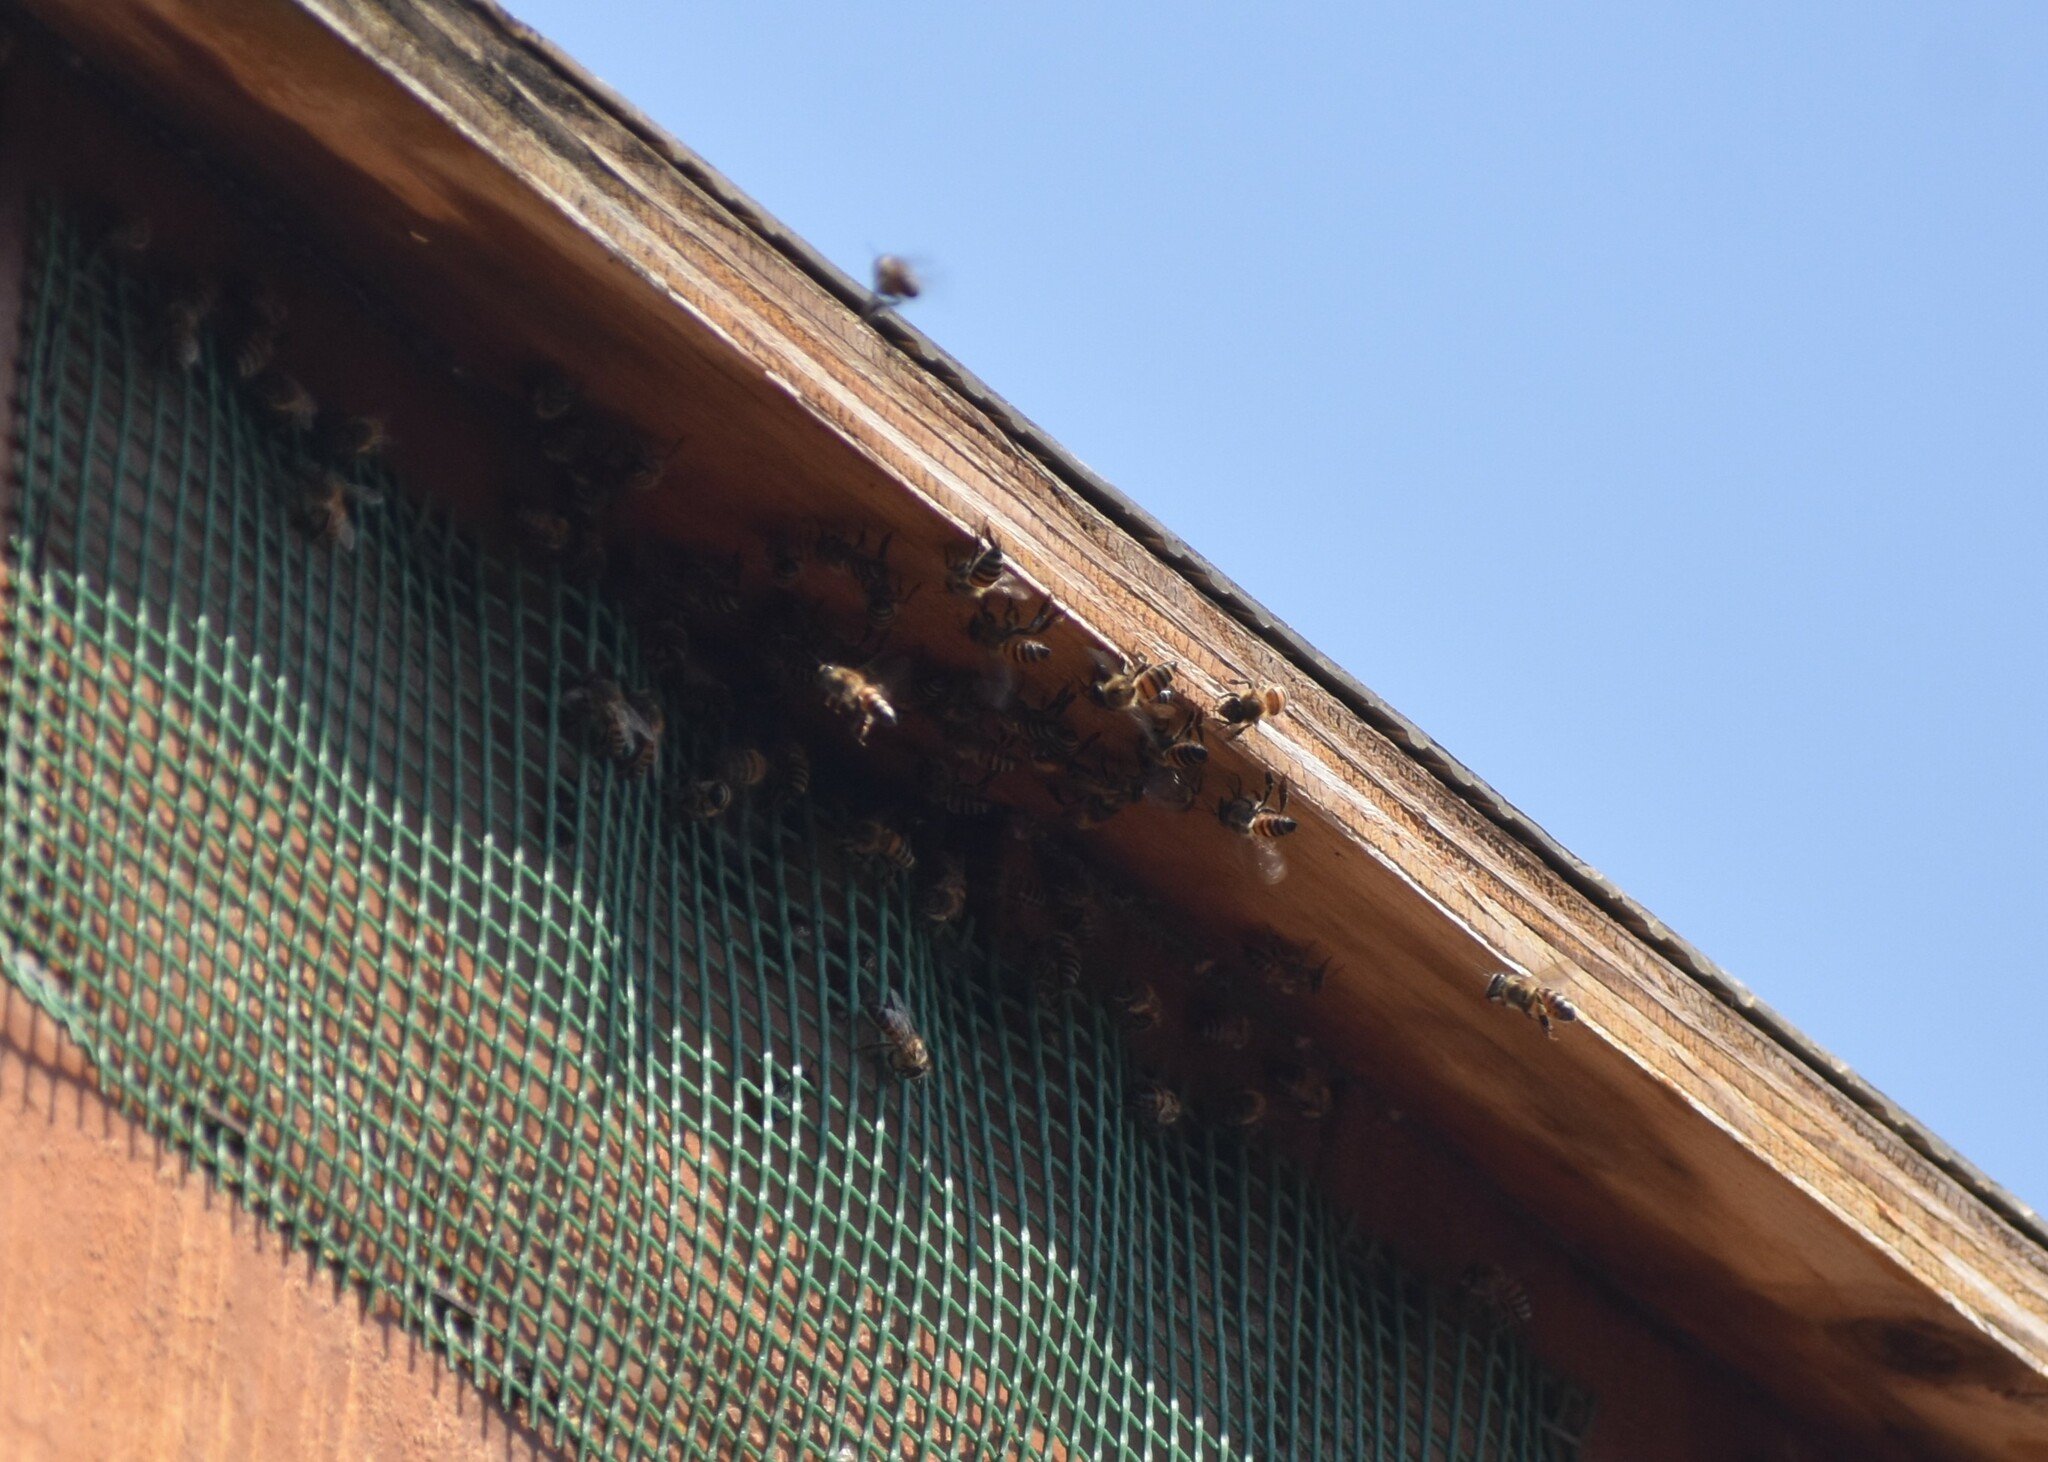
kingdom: Animalia
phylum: Arthropoda
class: Insecta
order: Hymenoptera
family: Apidae
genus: Apis
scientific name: Apis mellifera
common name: Honey bee
